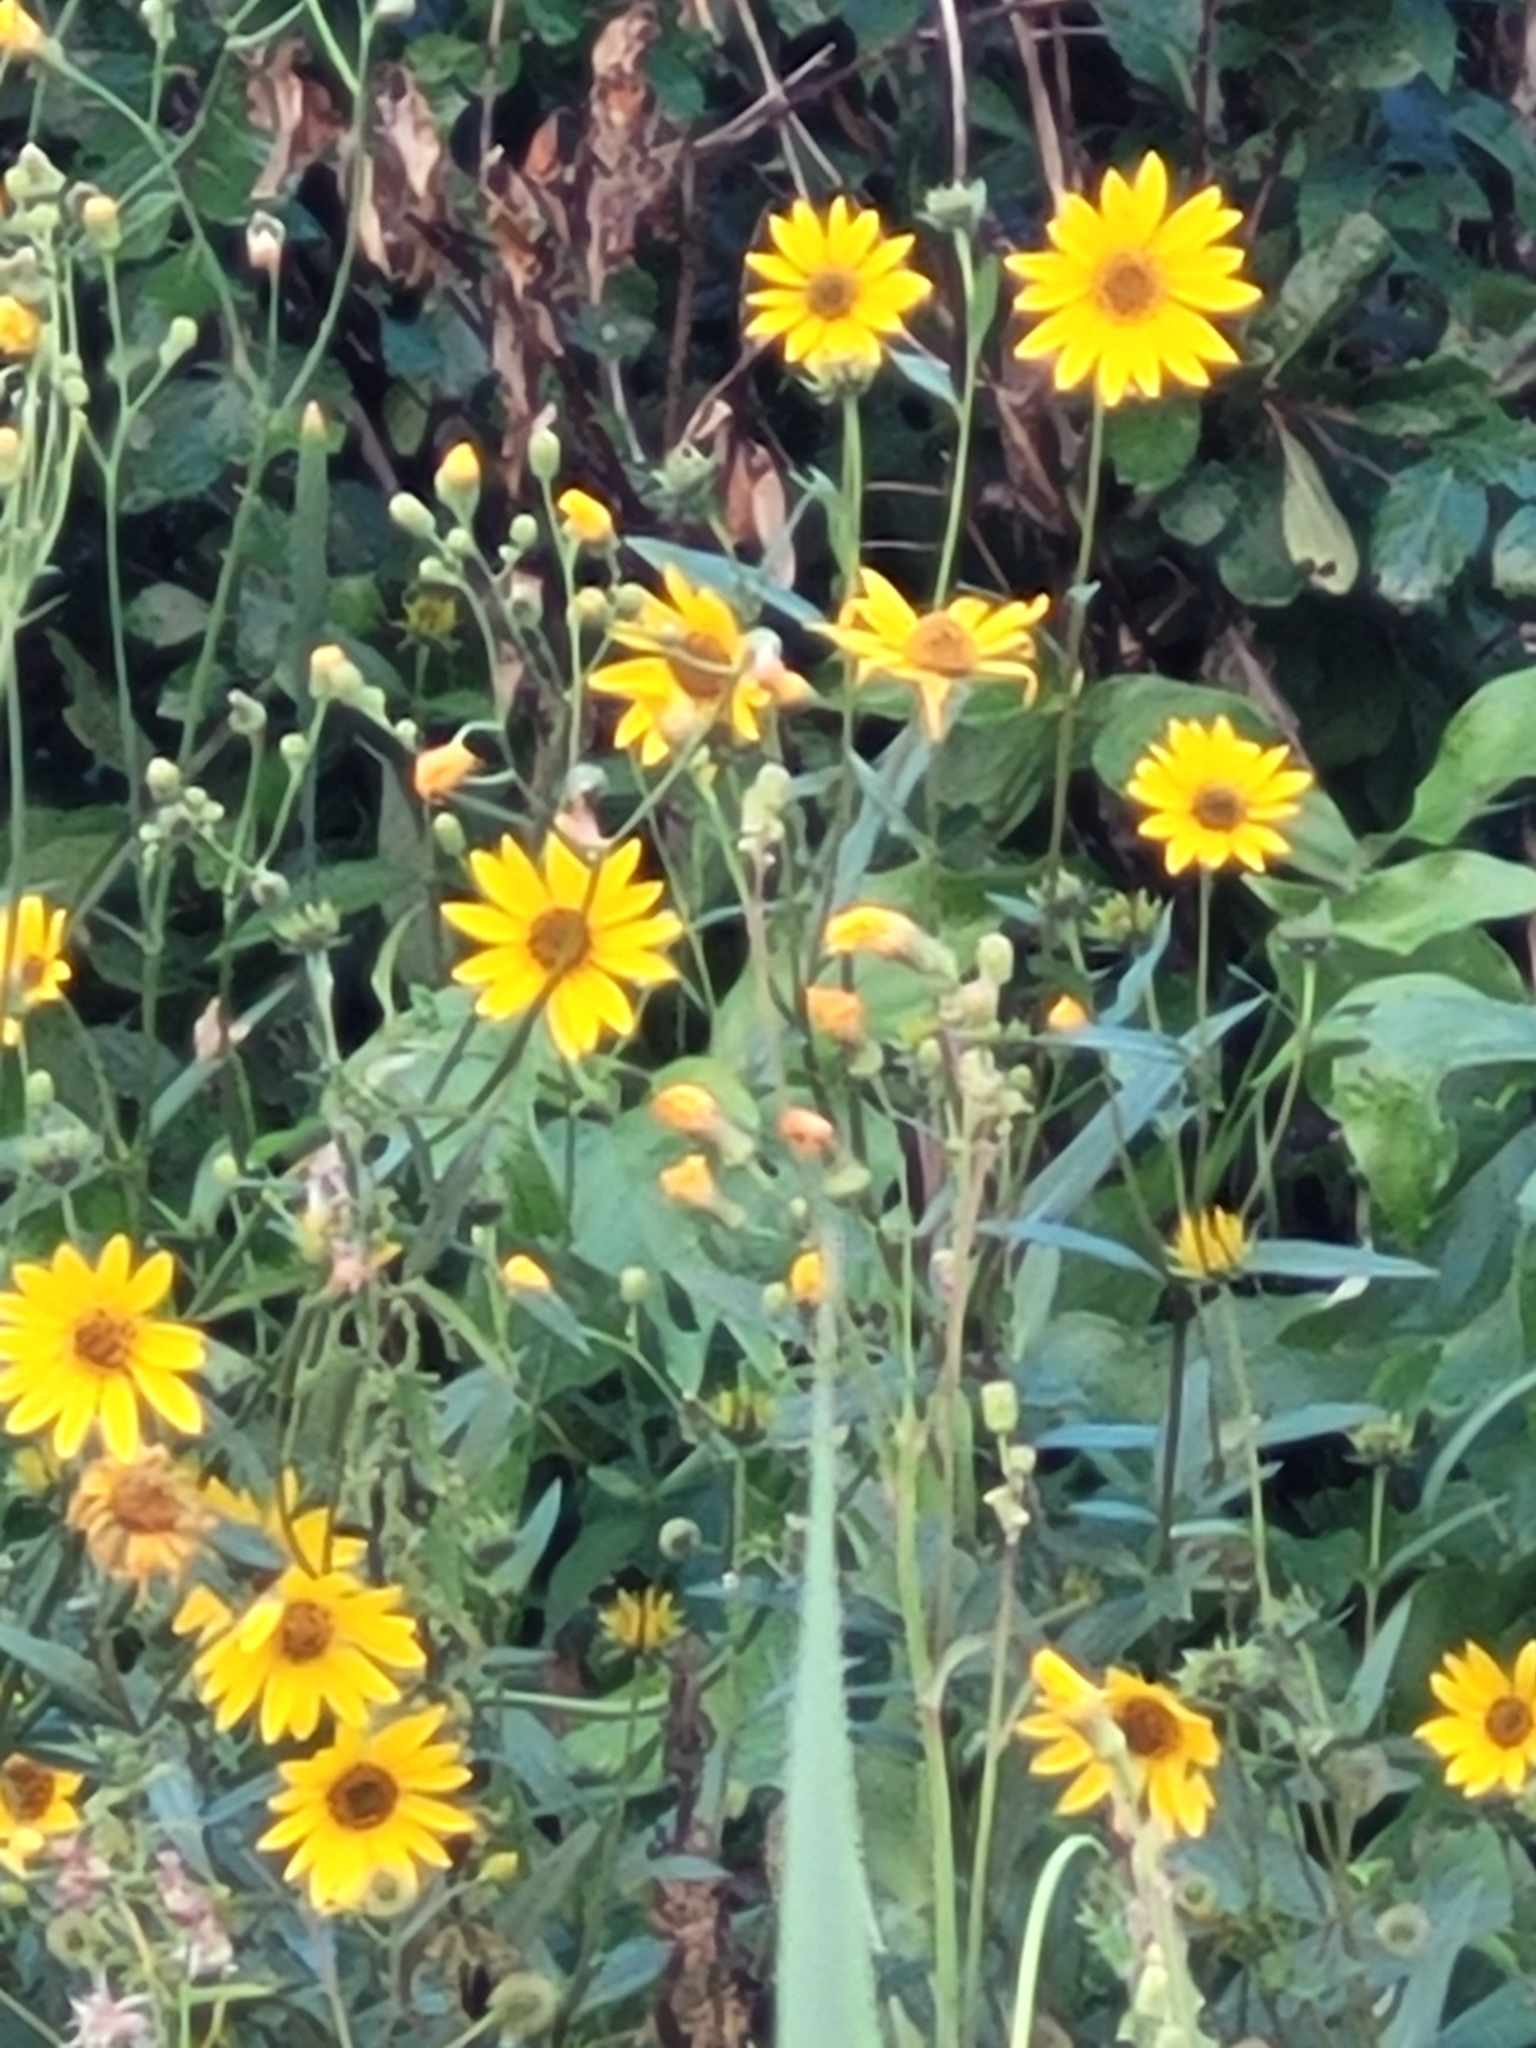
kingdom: Plantae
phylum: Tracheophyta
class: Magnoliopsida
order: Asterales
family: Asteraceae
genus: Helianthus
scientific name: Helianthus nuttallii
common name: Nuttall's sunflower
